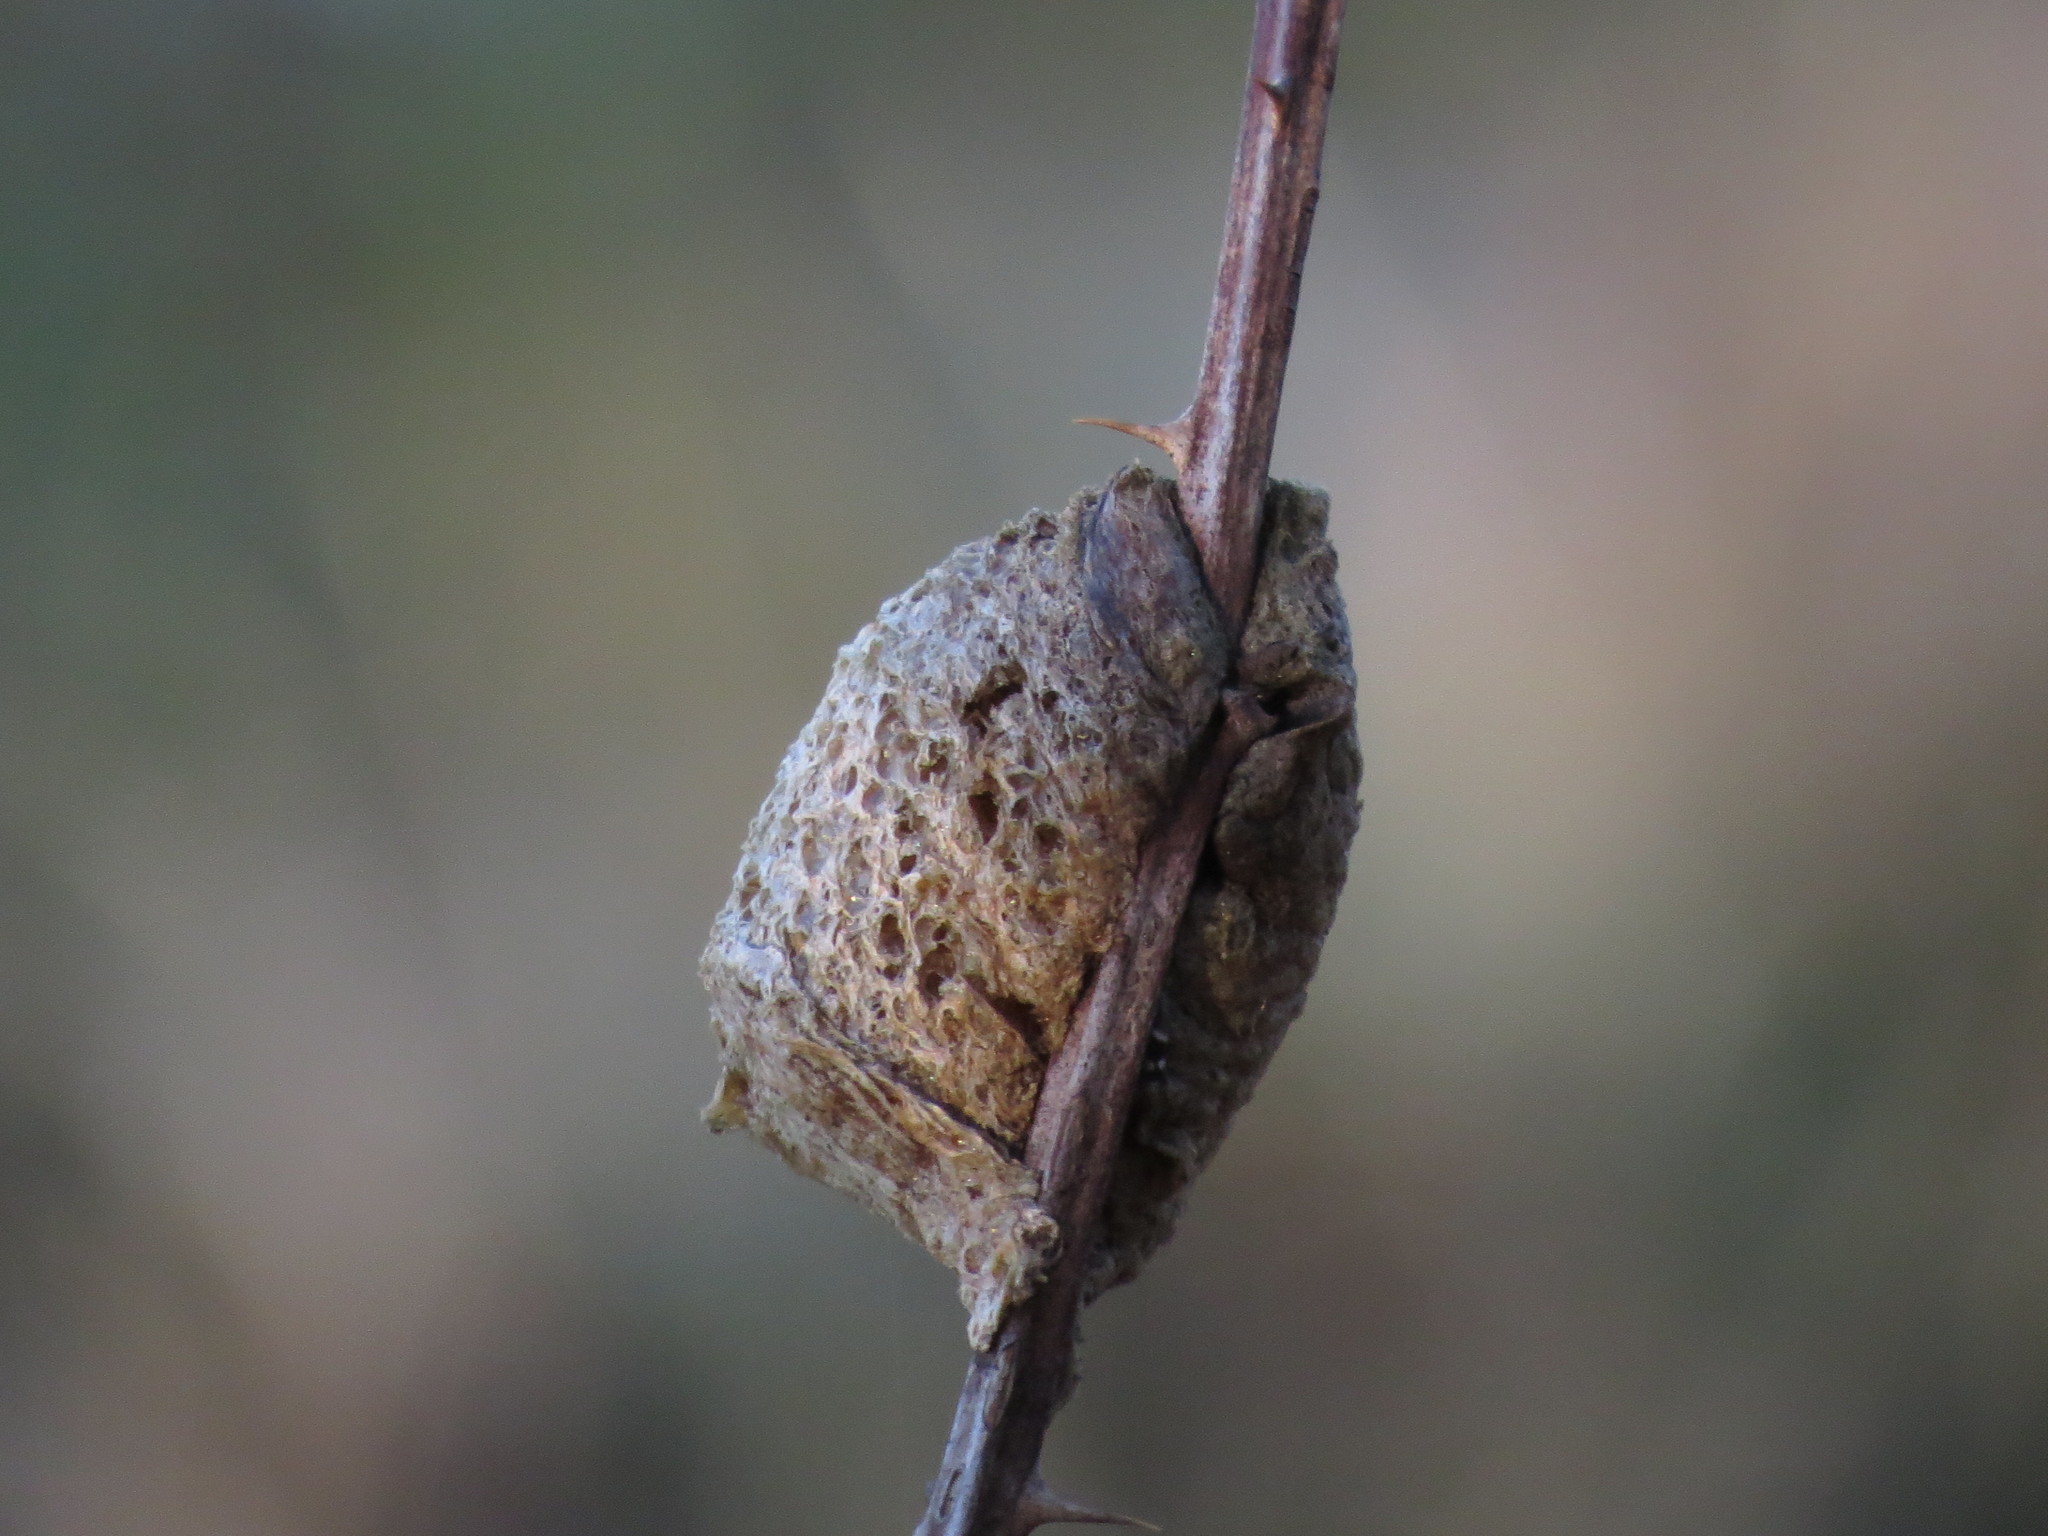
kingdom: Animalia
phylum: Arthropoda
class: Insecta
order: Mantodea
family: Mantidae
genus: Tenodera
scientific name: Tenodera sinensis
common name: Chinese mantis
